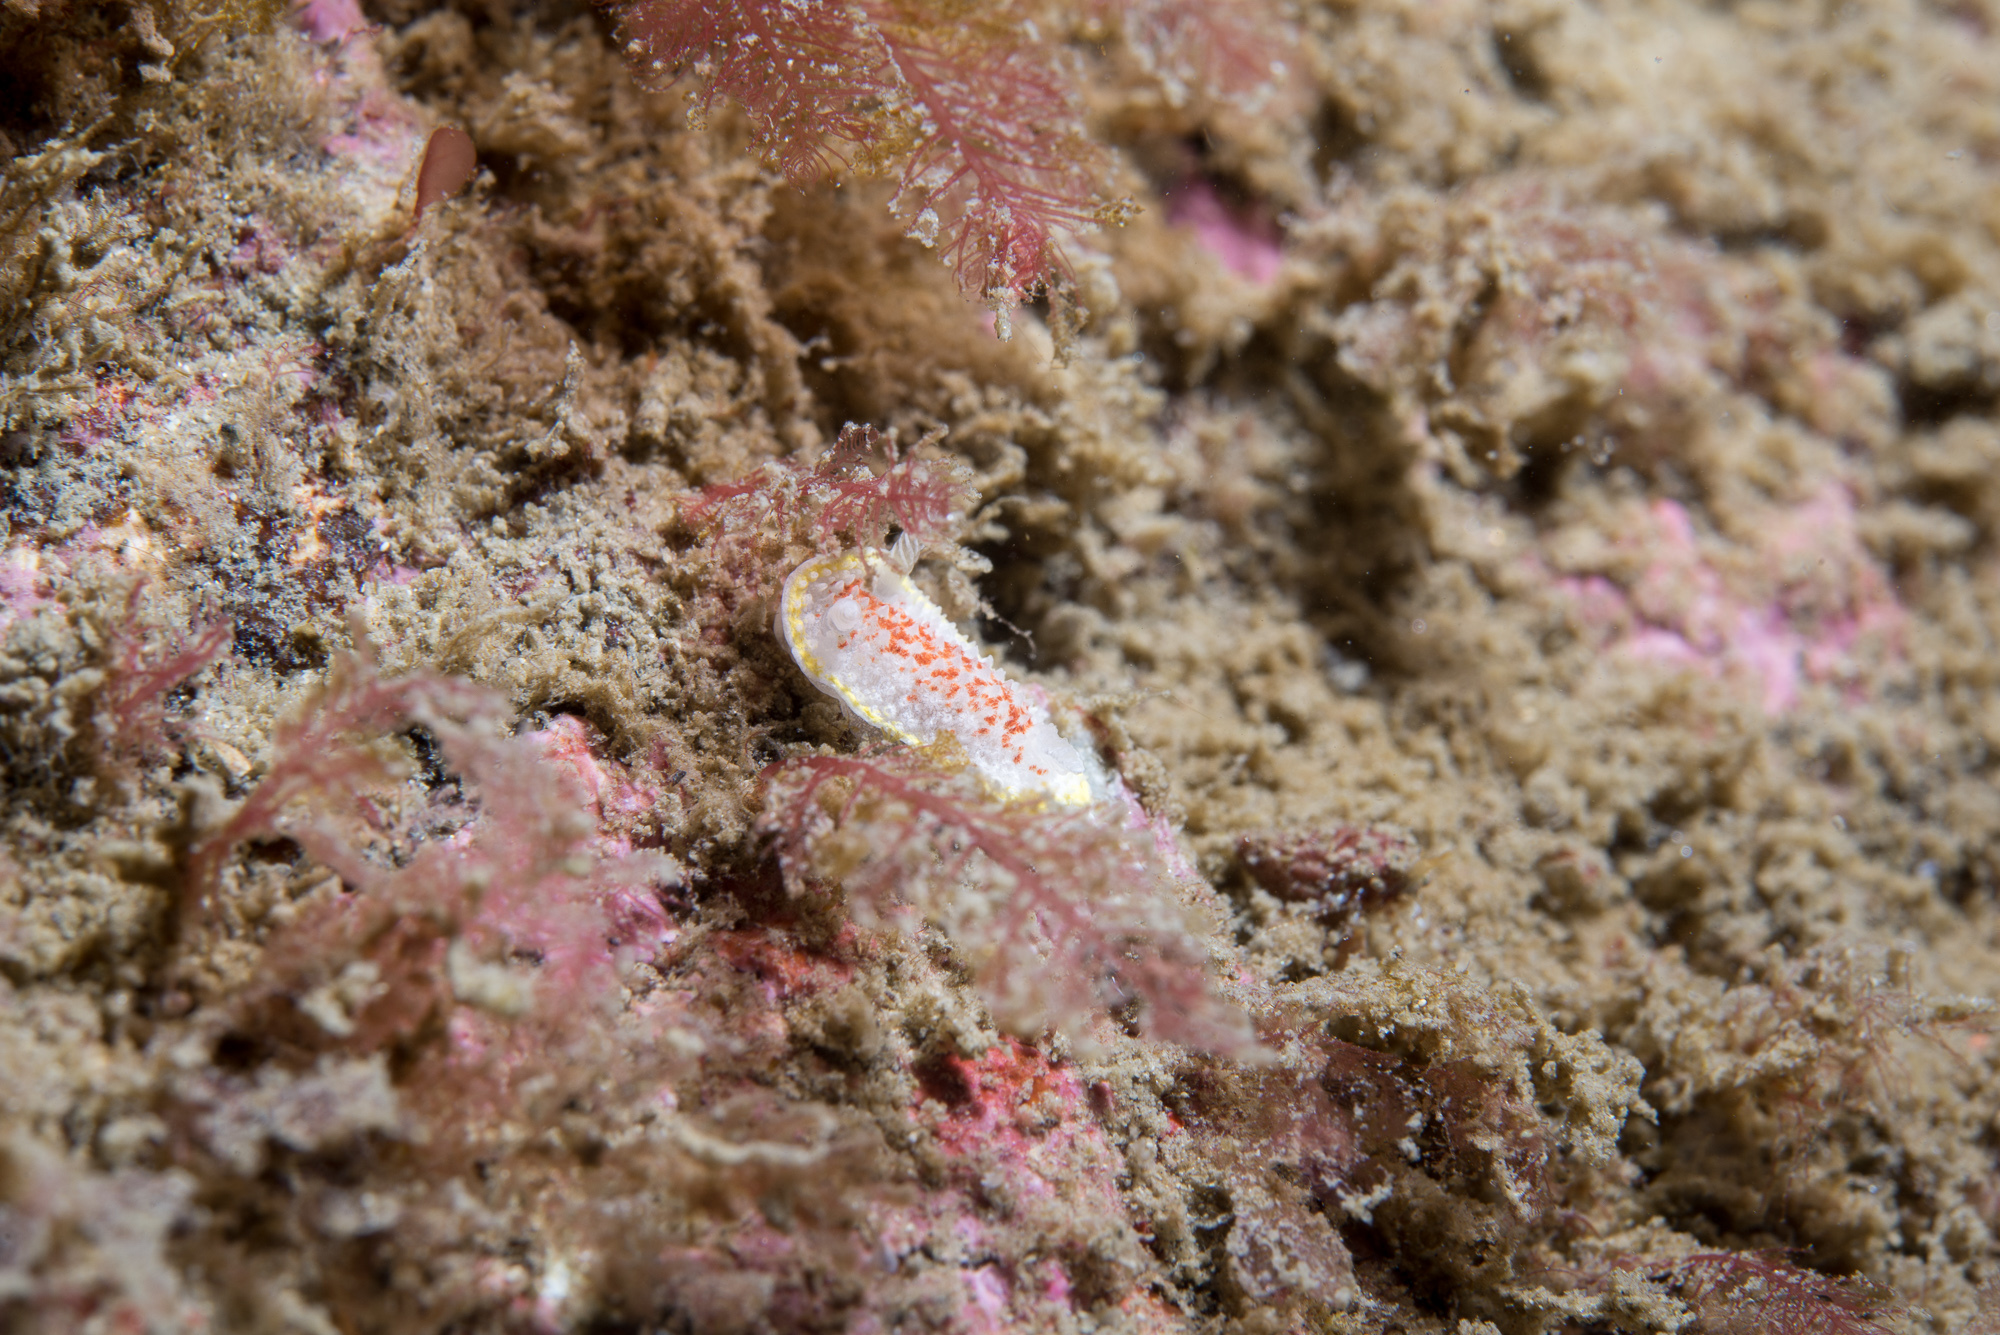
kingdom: Animalia
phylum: Mollusca
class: Gastropoda
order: Nudibranchia
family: Calycidorididae
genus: Diaphorodoris
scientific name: Diaphorodoris luteocincta
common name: Fried egg nudibranch
